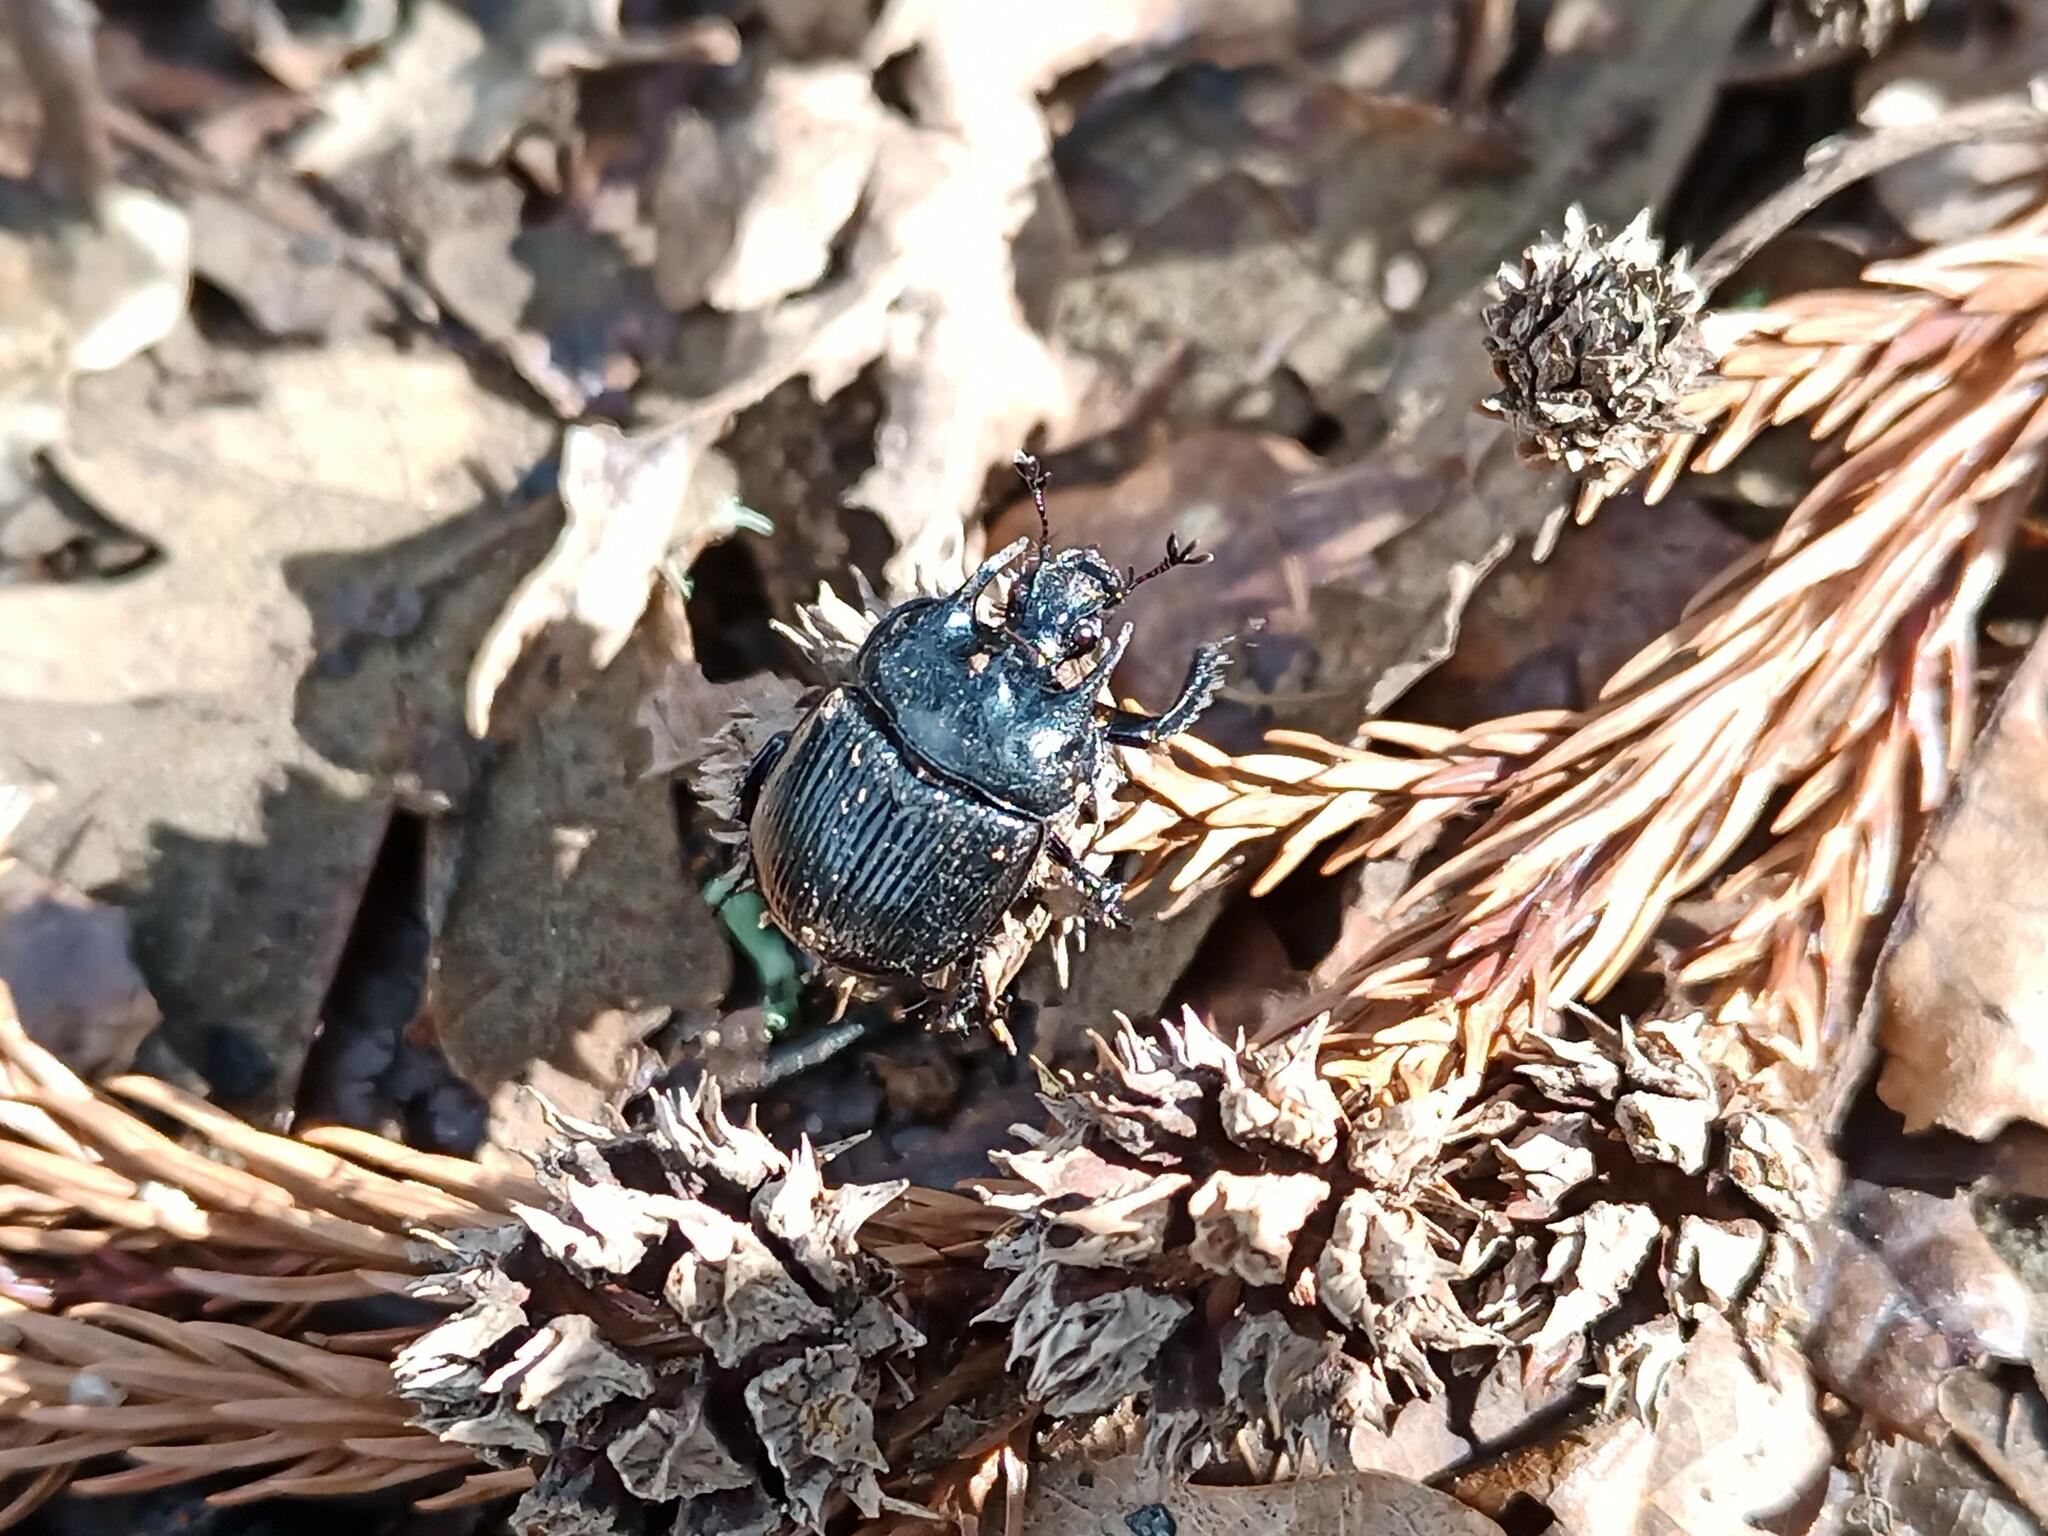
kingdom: Animalia
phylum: Arthropoda
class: Insecta
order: Coleoptera
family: Geotrupidae
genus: Typhaeus
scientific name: Typhaeus typhoeus
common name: Minotaur beetle
